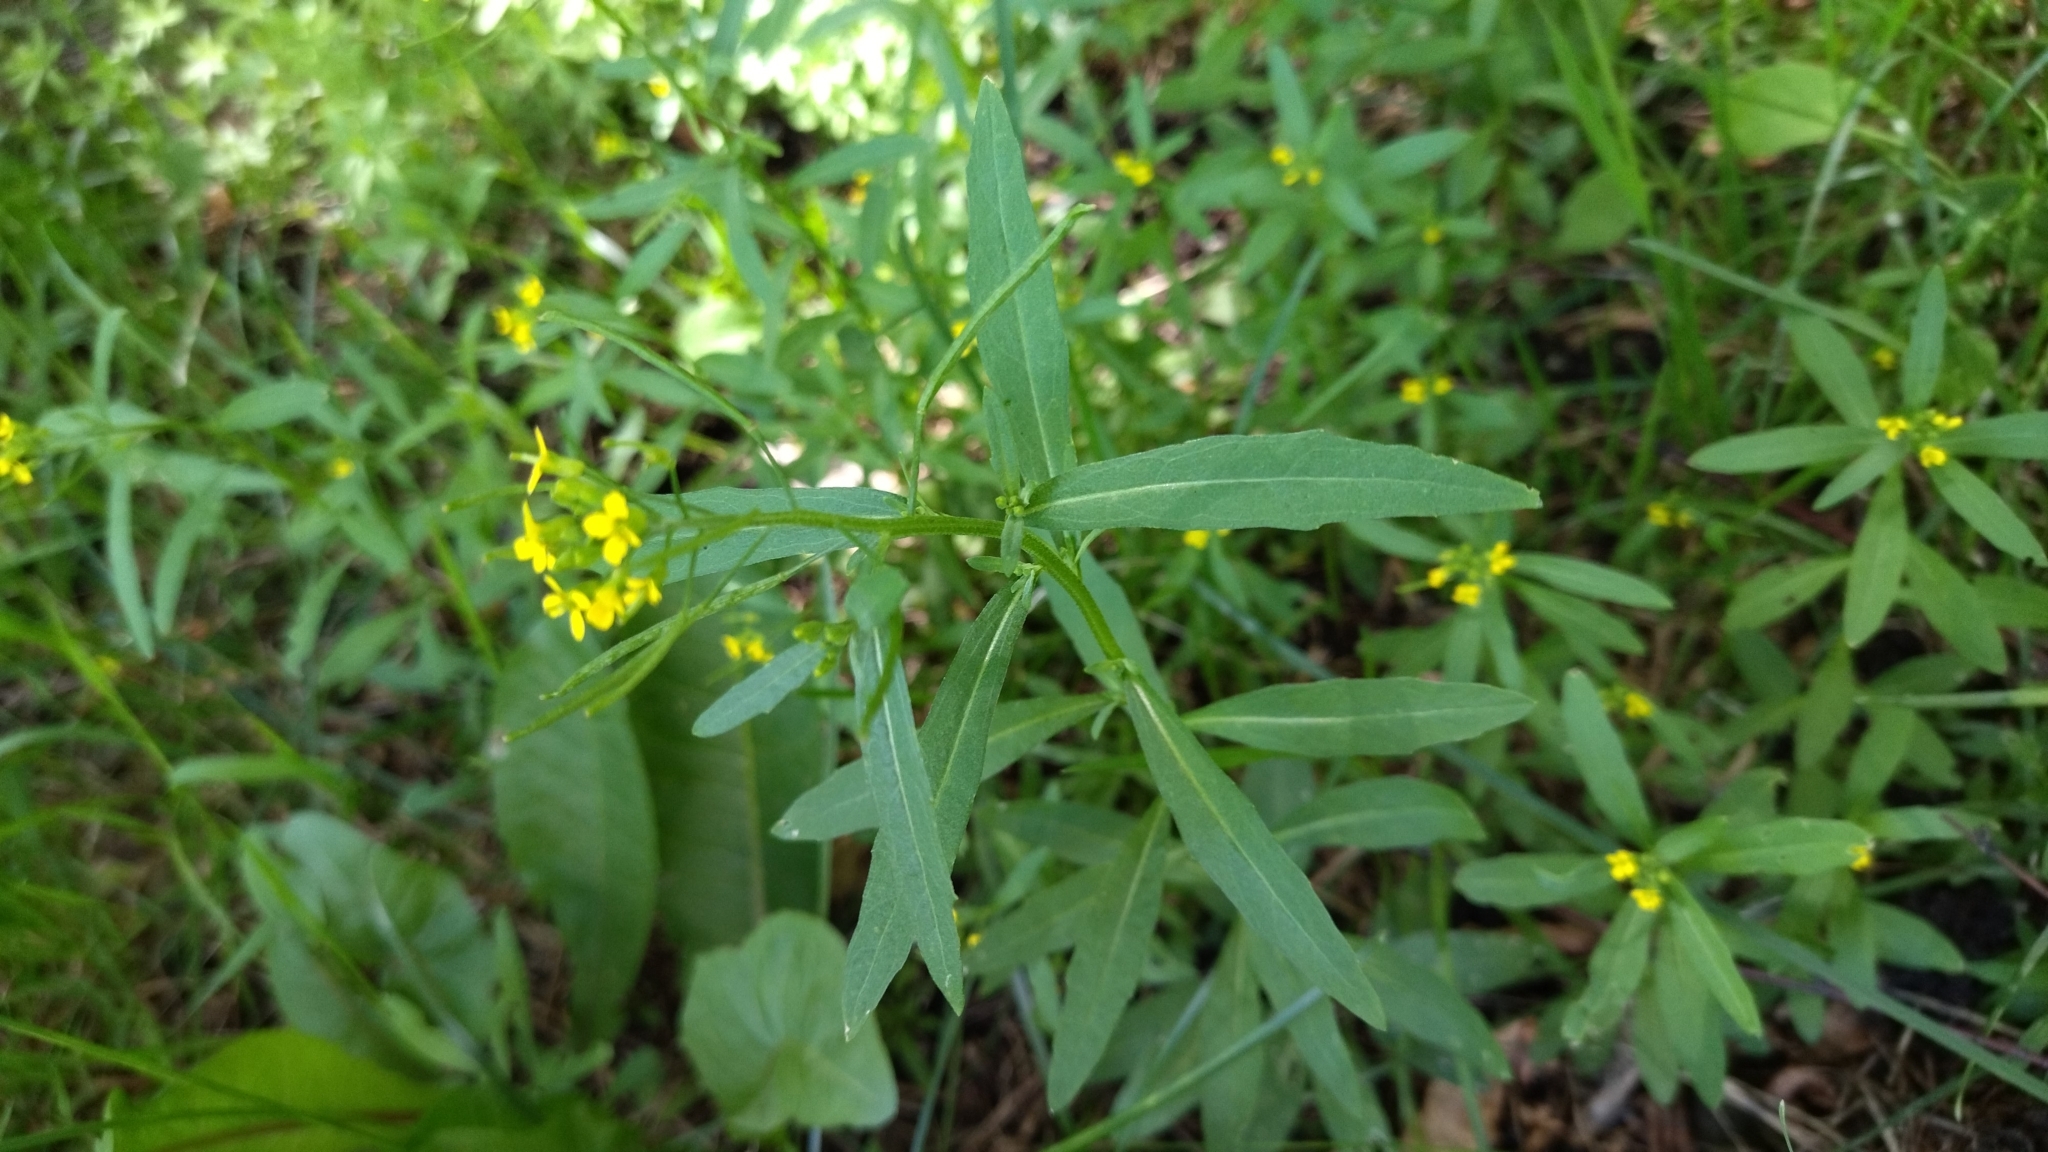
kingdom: Plantae
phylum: Tracheophyta
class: Magnoliopsida
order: Brassicales
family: Brassicaceae
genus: Erysimum
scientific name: Erysimum cheiranthoides
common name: Treacle mustard
